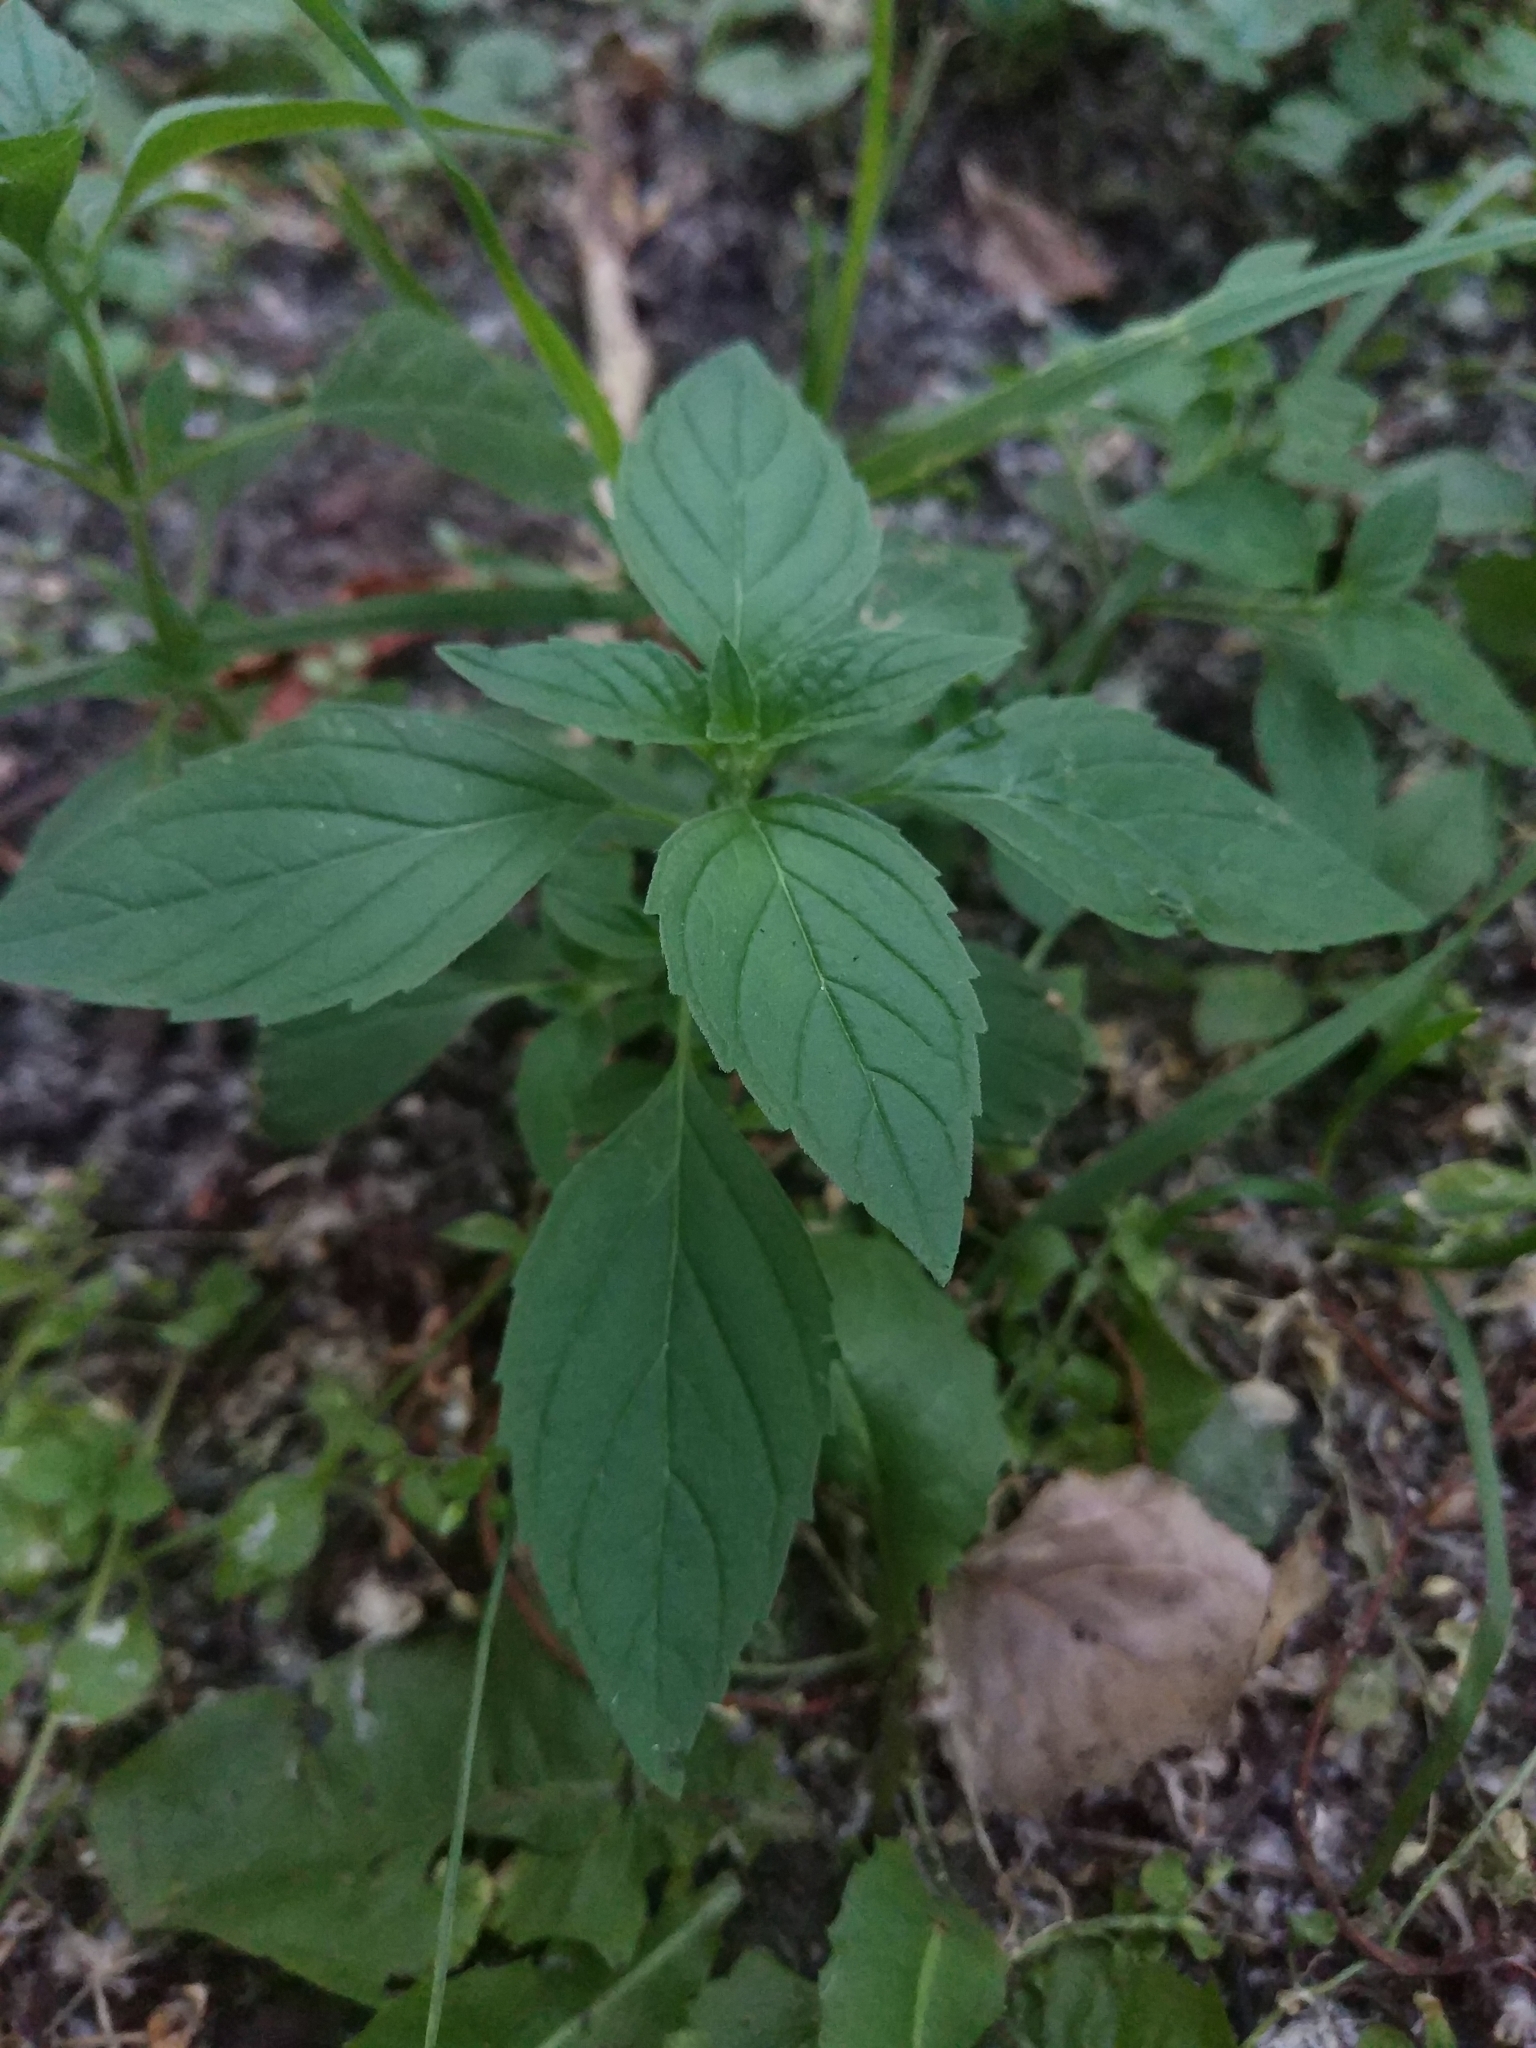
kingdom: Plantae
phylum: Tracheophyta
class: Magnoliopsida
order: Lamiales
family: Lamiaceae
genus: Mentha
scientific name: Mentha arvensis
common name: Corn mint
